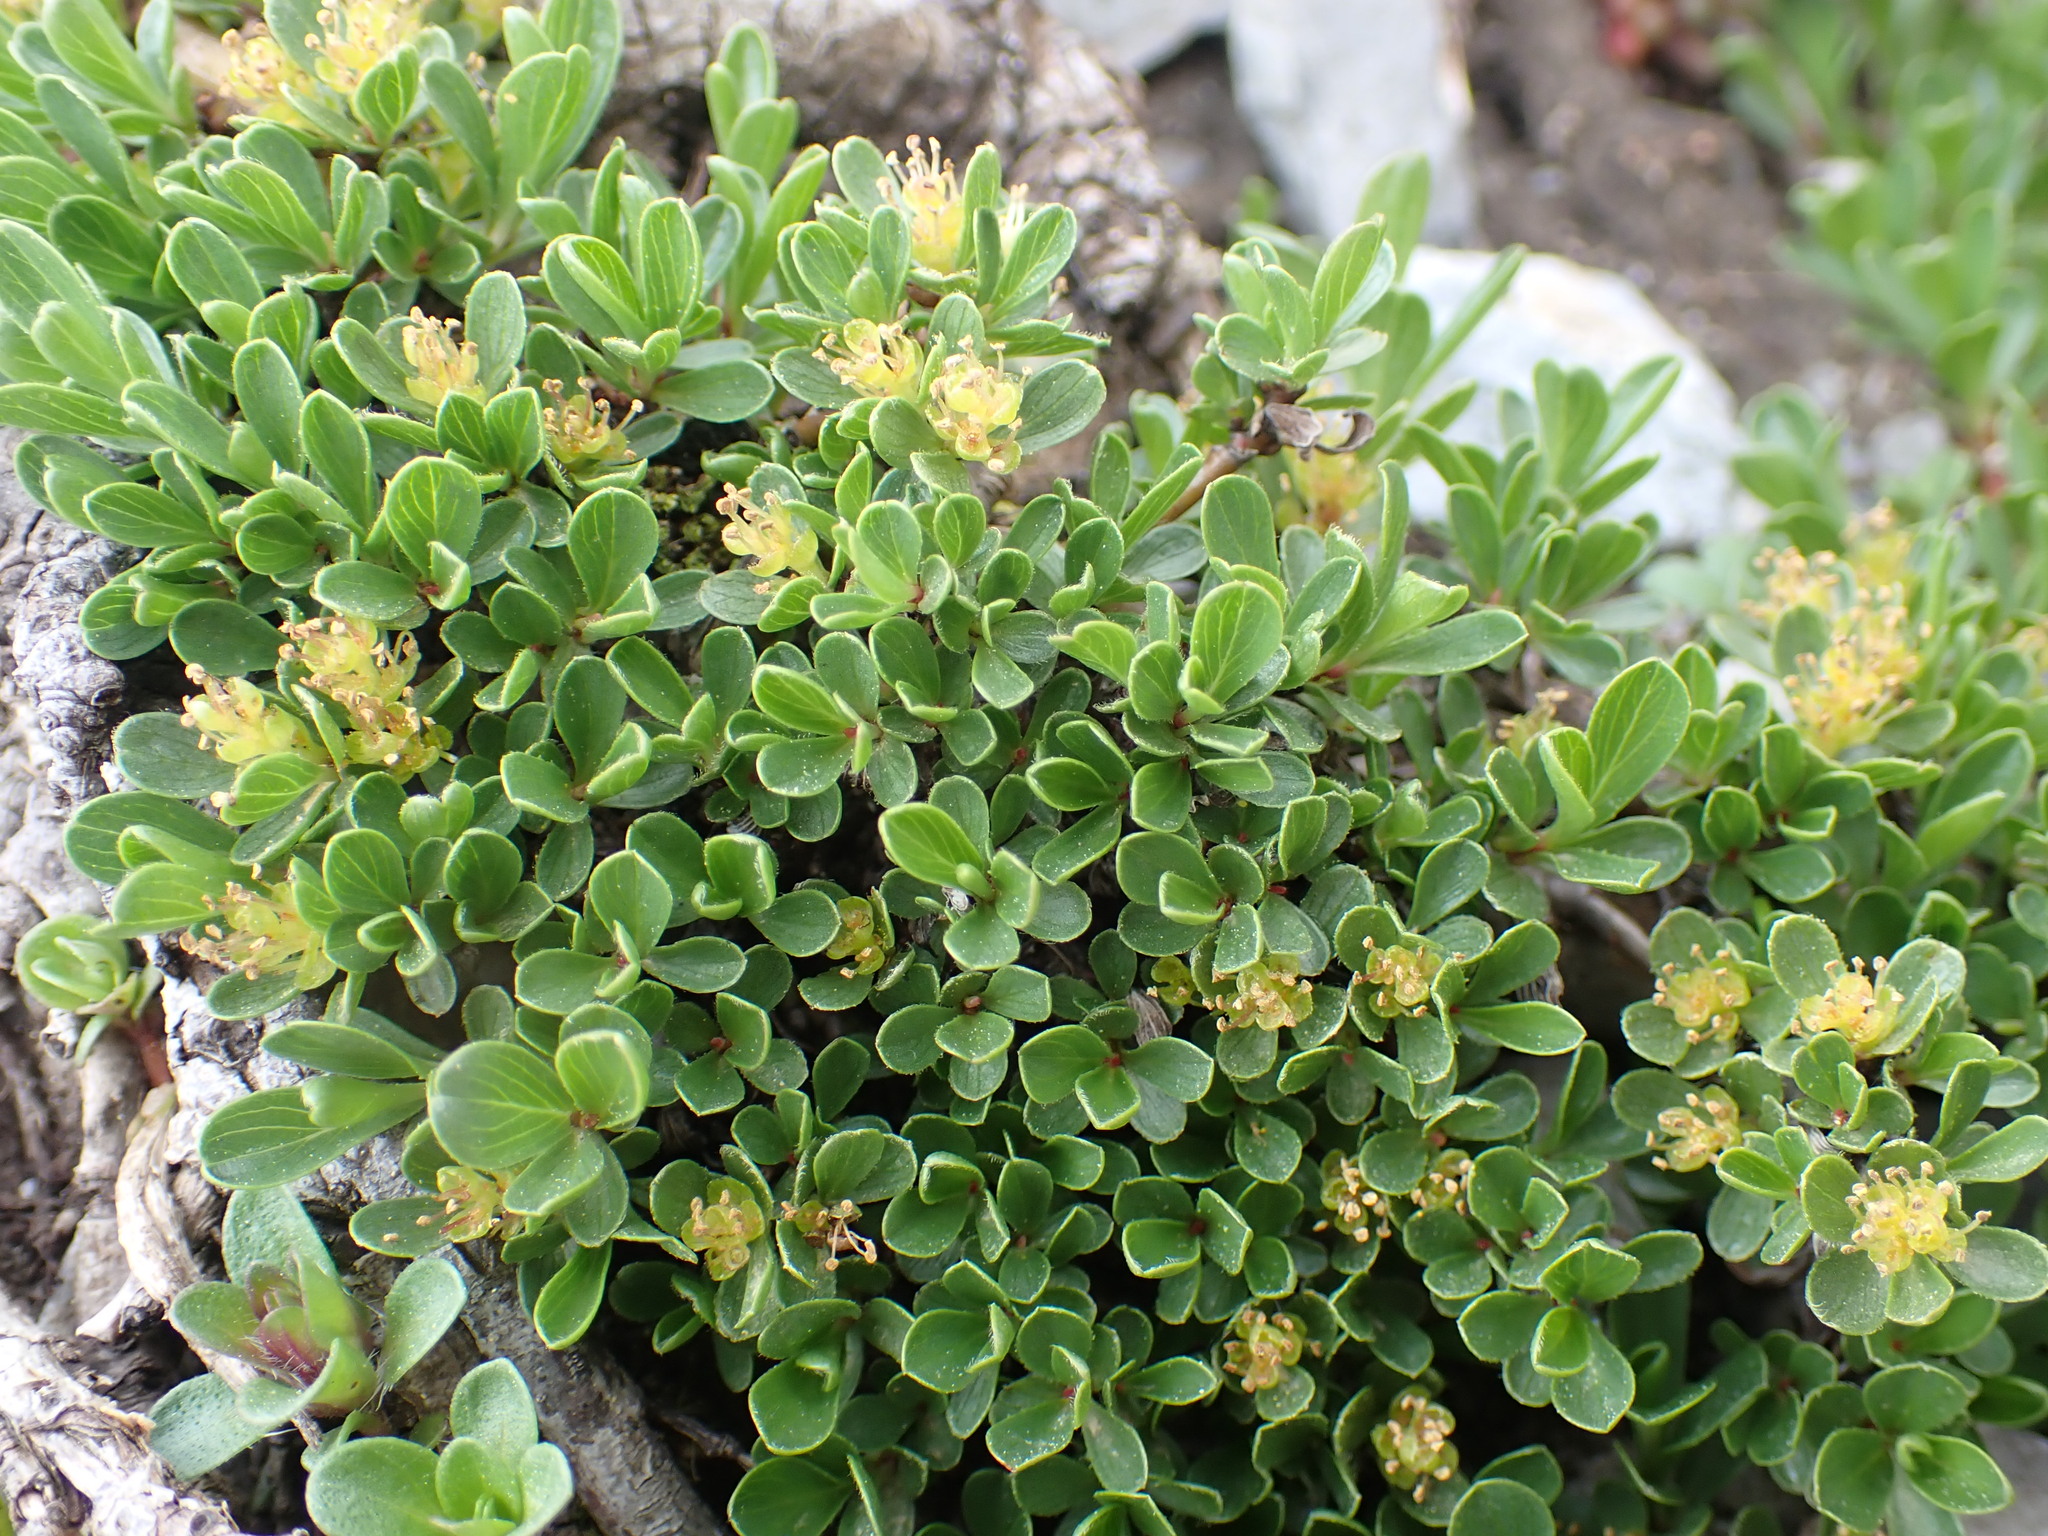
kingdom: Plantae
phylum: Tracheophyta
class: Magnoliopsida
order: Malpighiales
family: Salicaceae
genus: Salix
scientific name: Salix retusa
